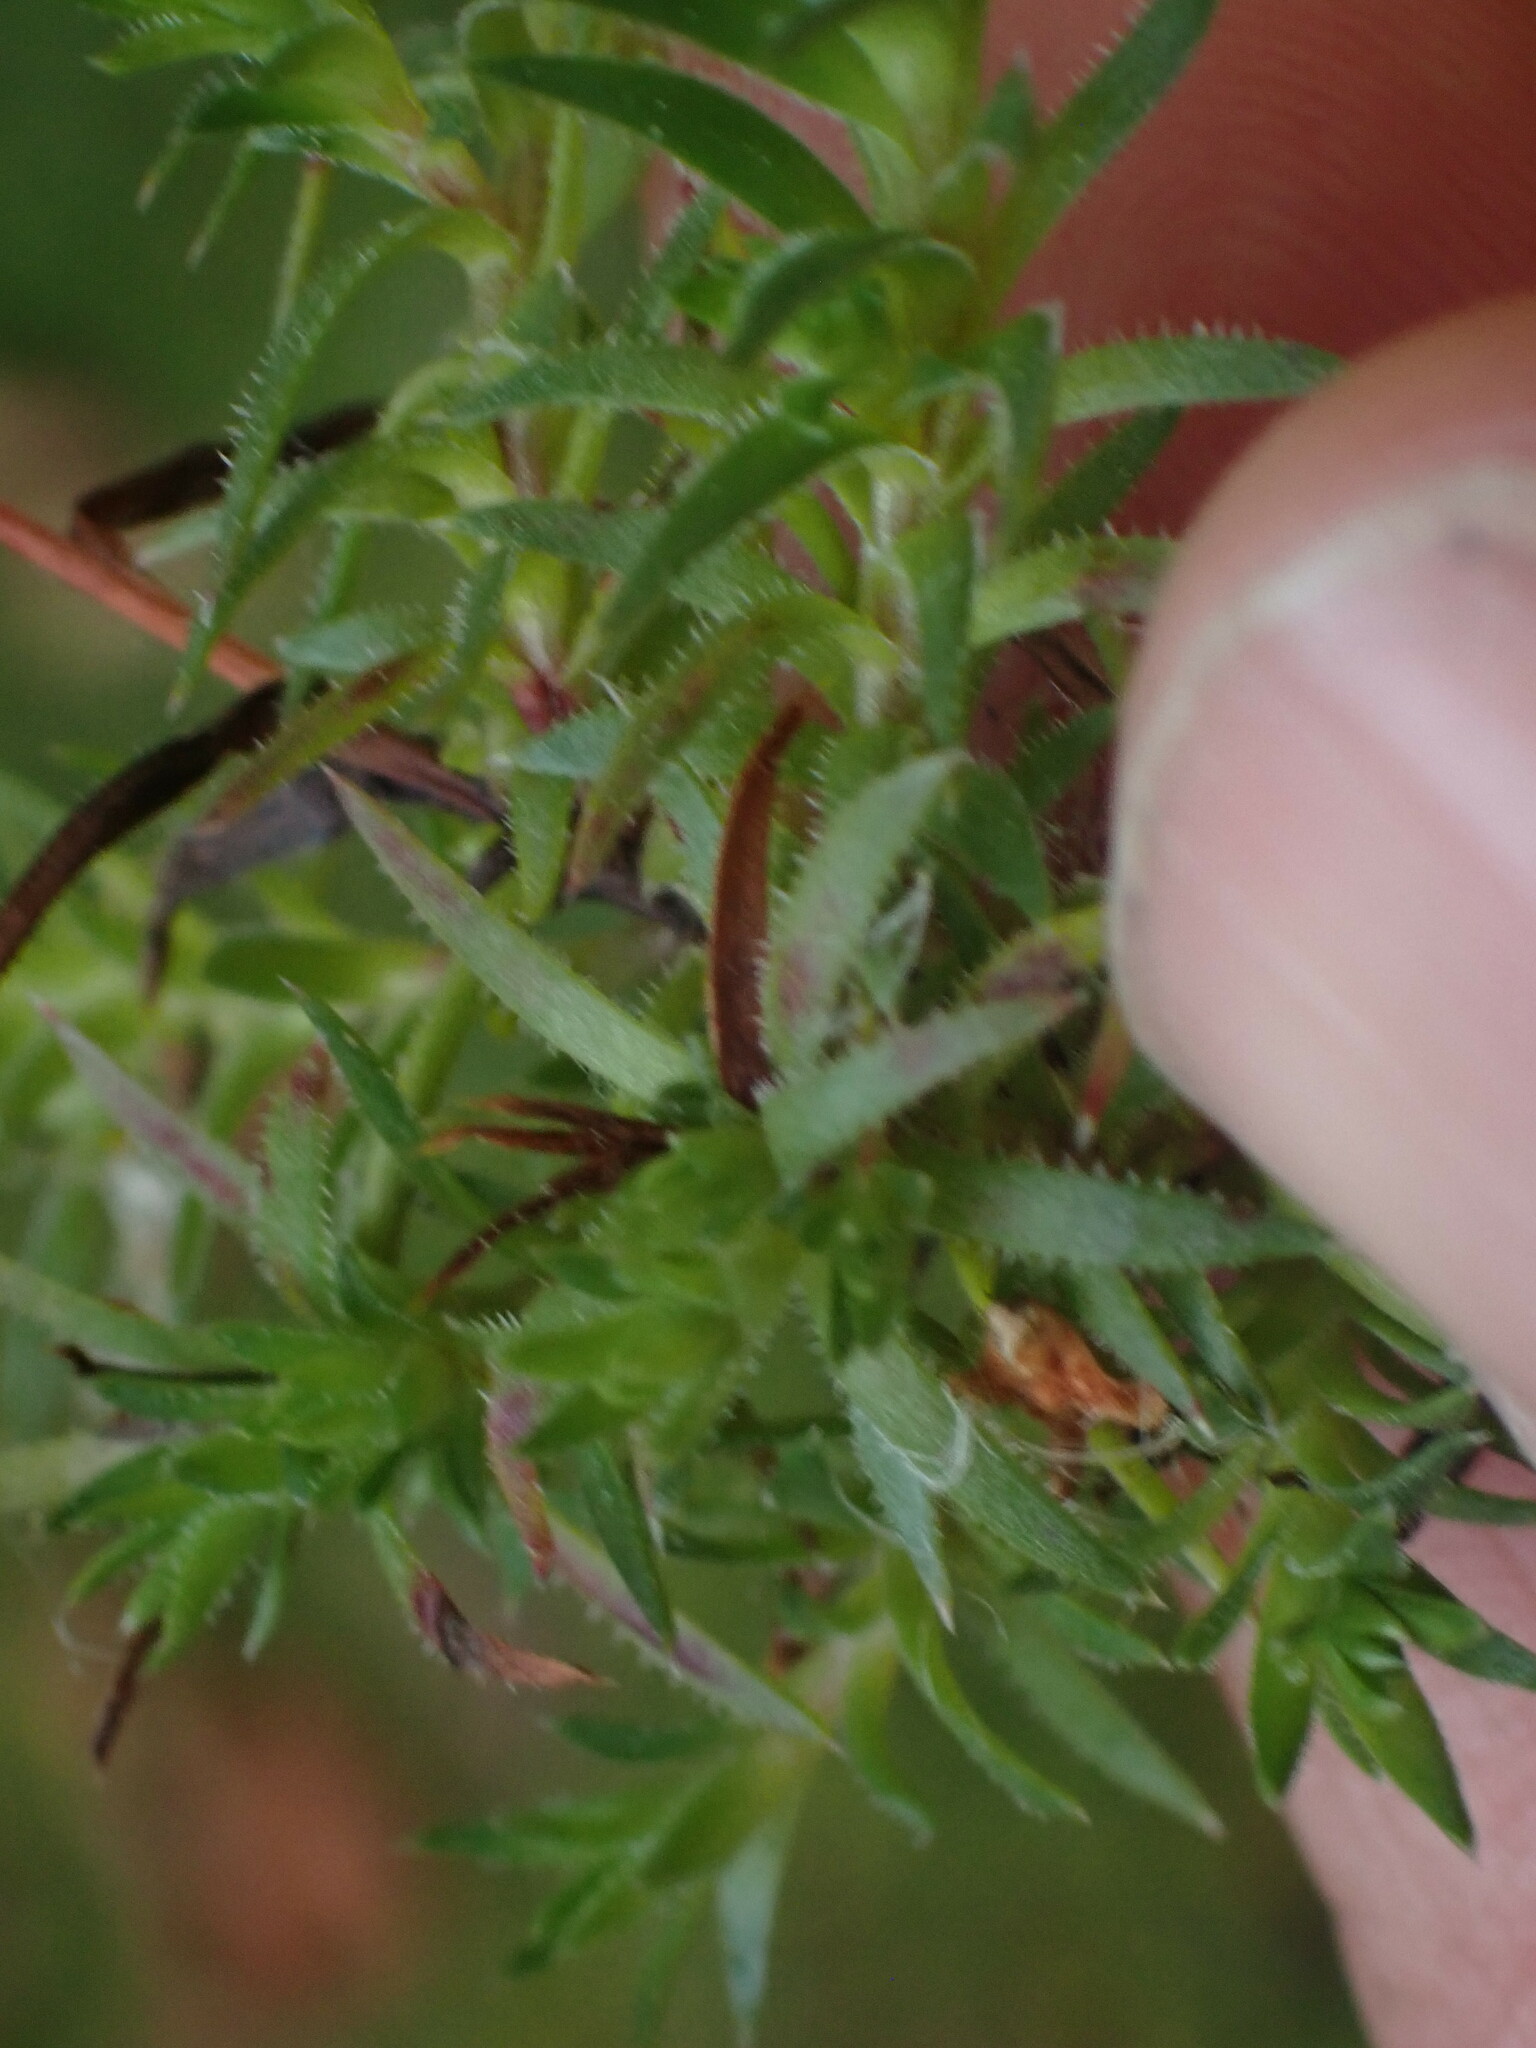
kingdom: Plantae
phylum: Tracheophyta
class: Magnoliopsida
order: Saxifragales
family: Saxifragaceae
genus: Saxifraga
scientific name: Saxifraga bronchialis
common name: Matted saxifrage
